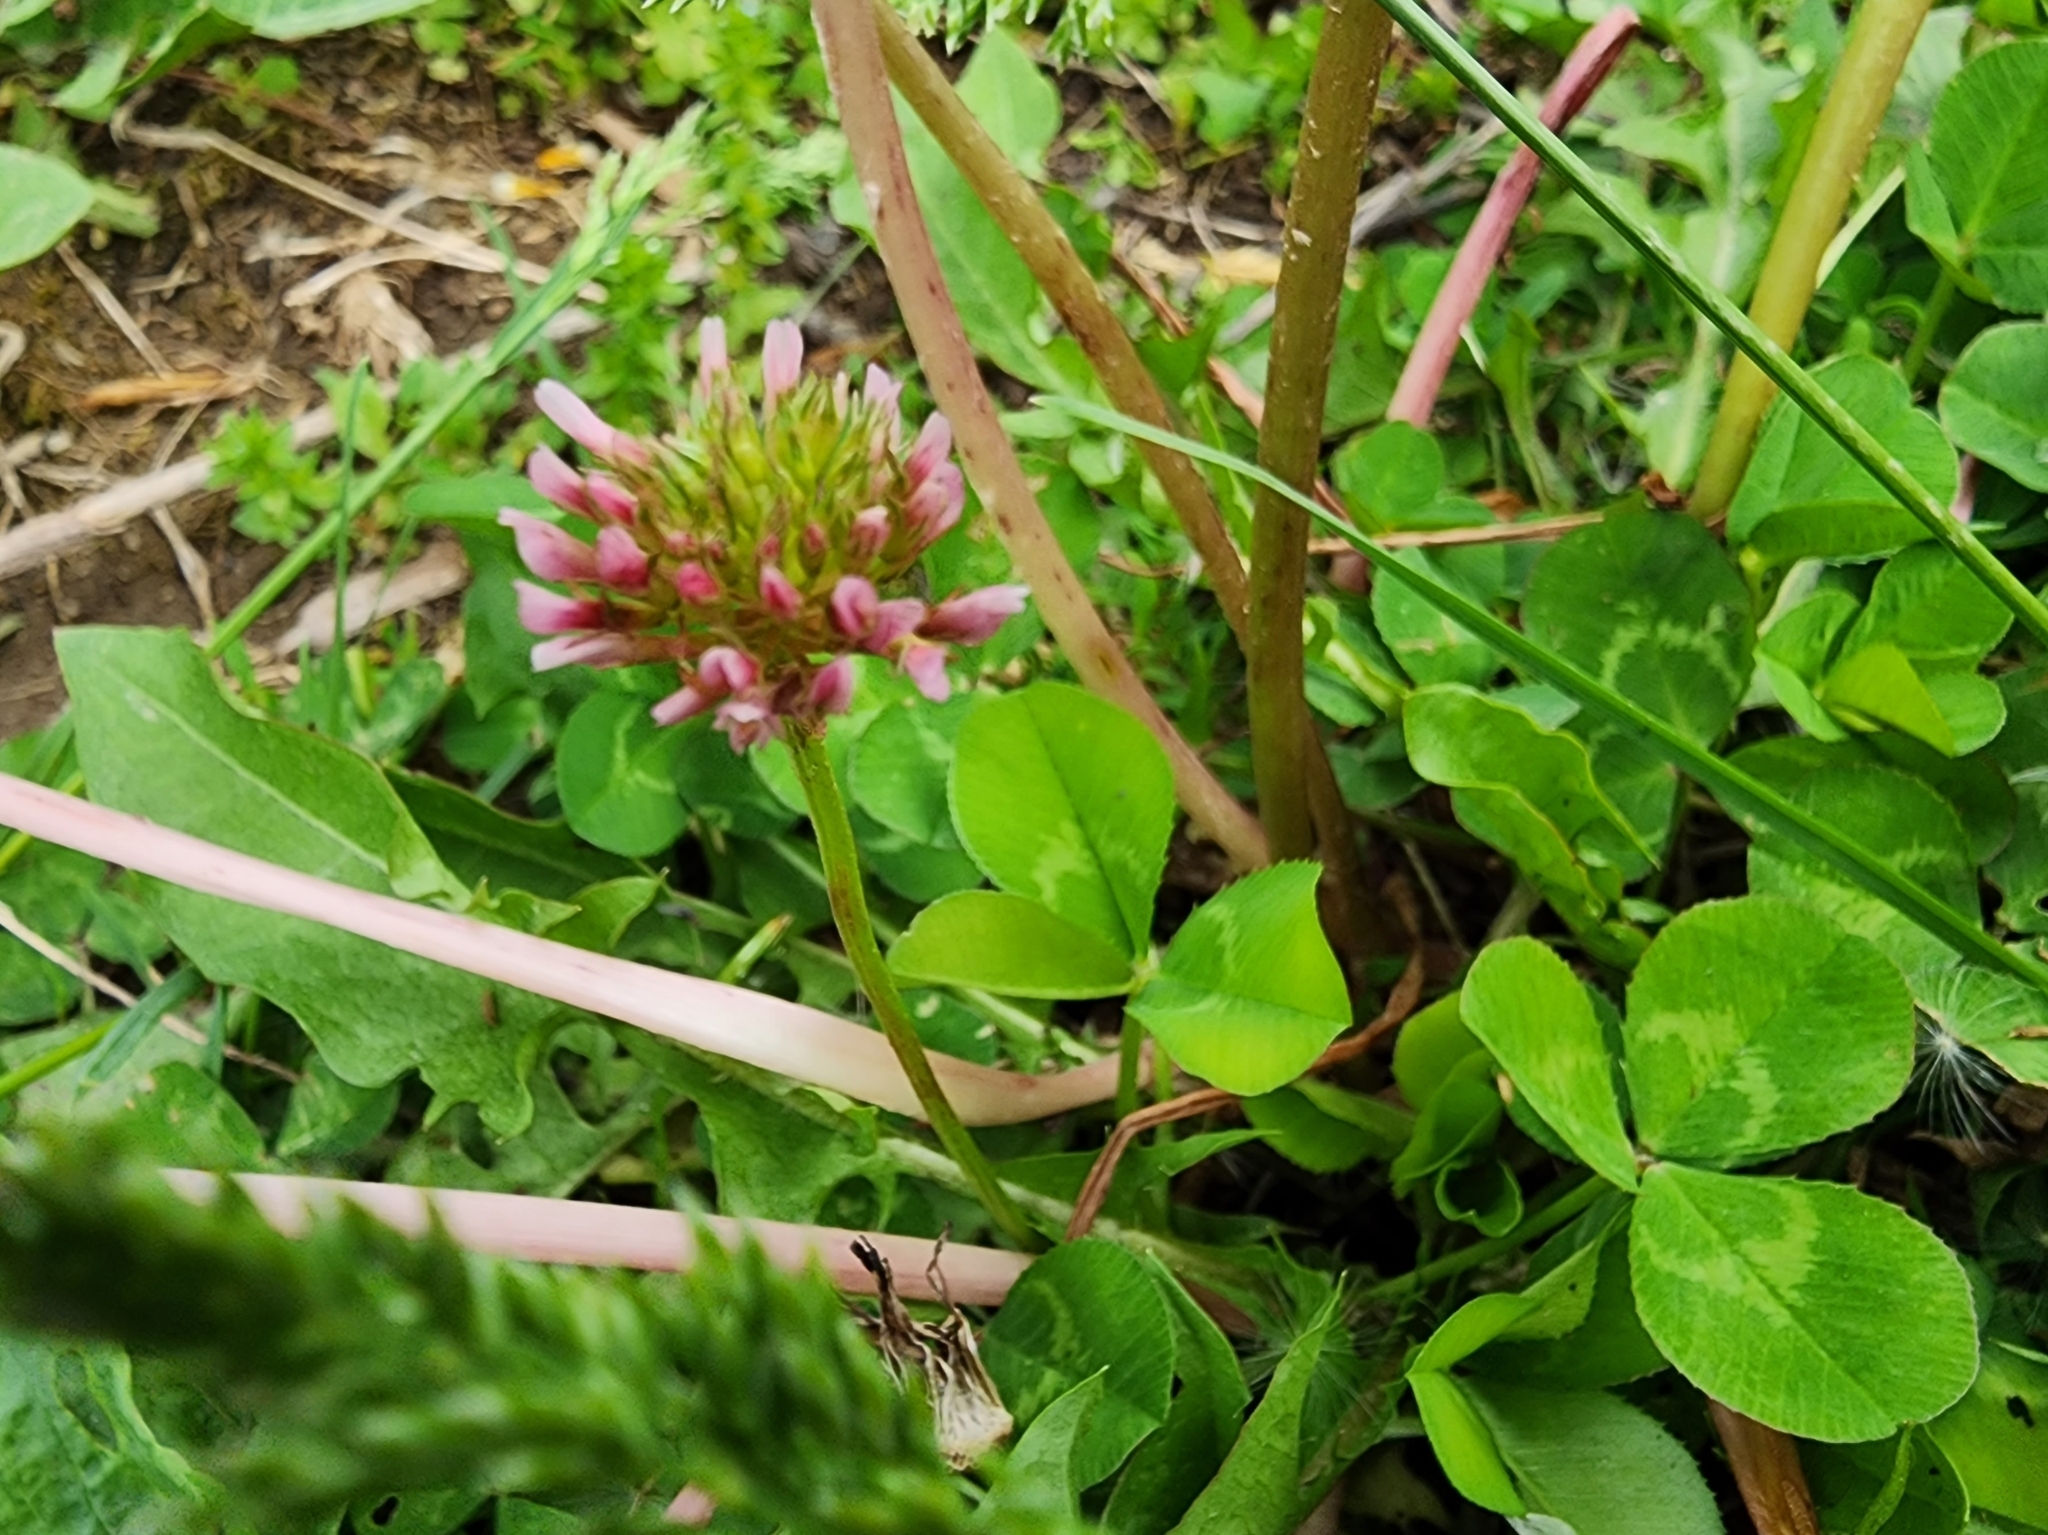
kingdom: Plantae
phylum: Tracheophyta
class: Magnoliopsida
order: Fabales
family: Fabaceae
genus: Trifolium
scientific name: Trifolium repens
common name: White clover
